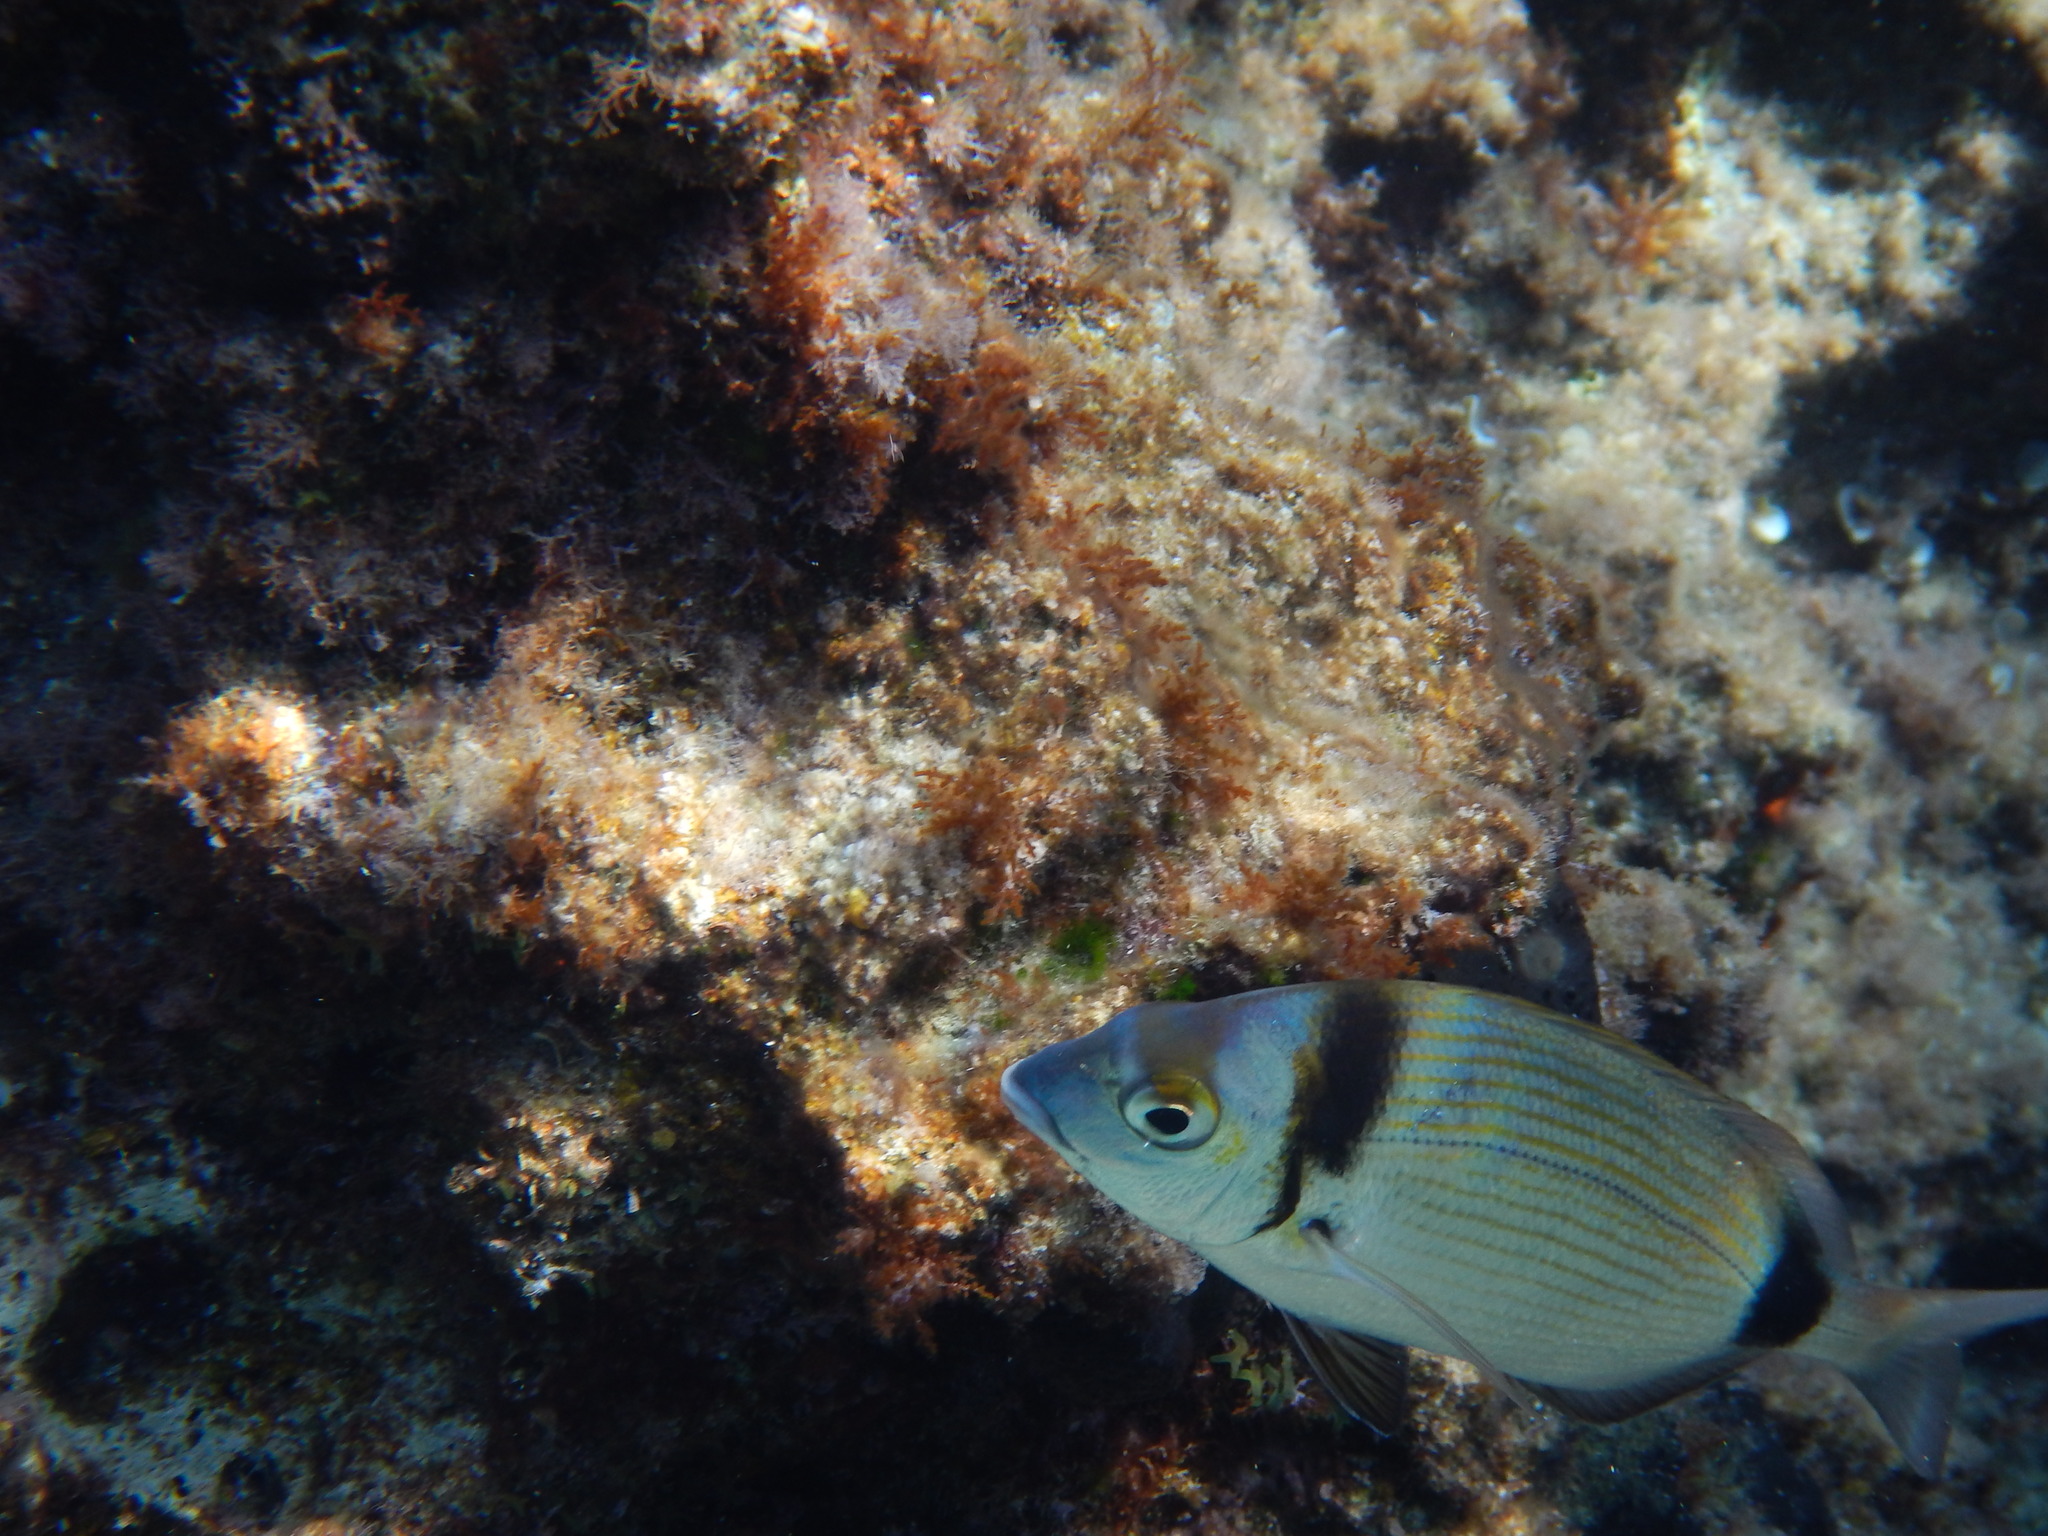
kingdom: Animalia
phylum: Chordata
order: Perciformes
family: Sparidae
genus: Diplodus
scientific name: Diplodus vulgaris
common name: Common two-banded seabream
